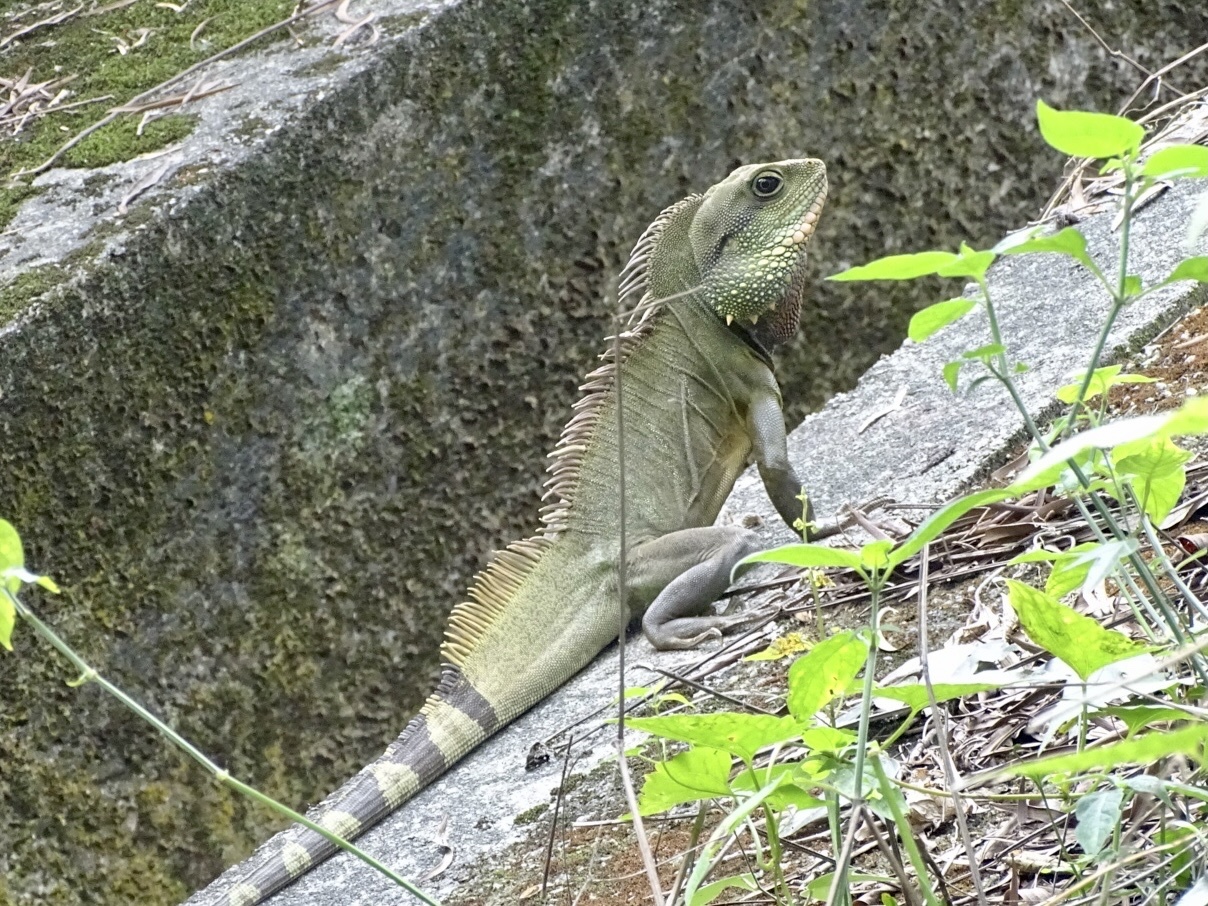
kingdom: Animalia
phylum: Chordata
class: Squamata
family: Agamidae
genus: Physignathus
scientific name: Physignathus cocincinus
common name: Asian water dragon
